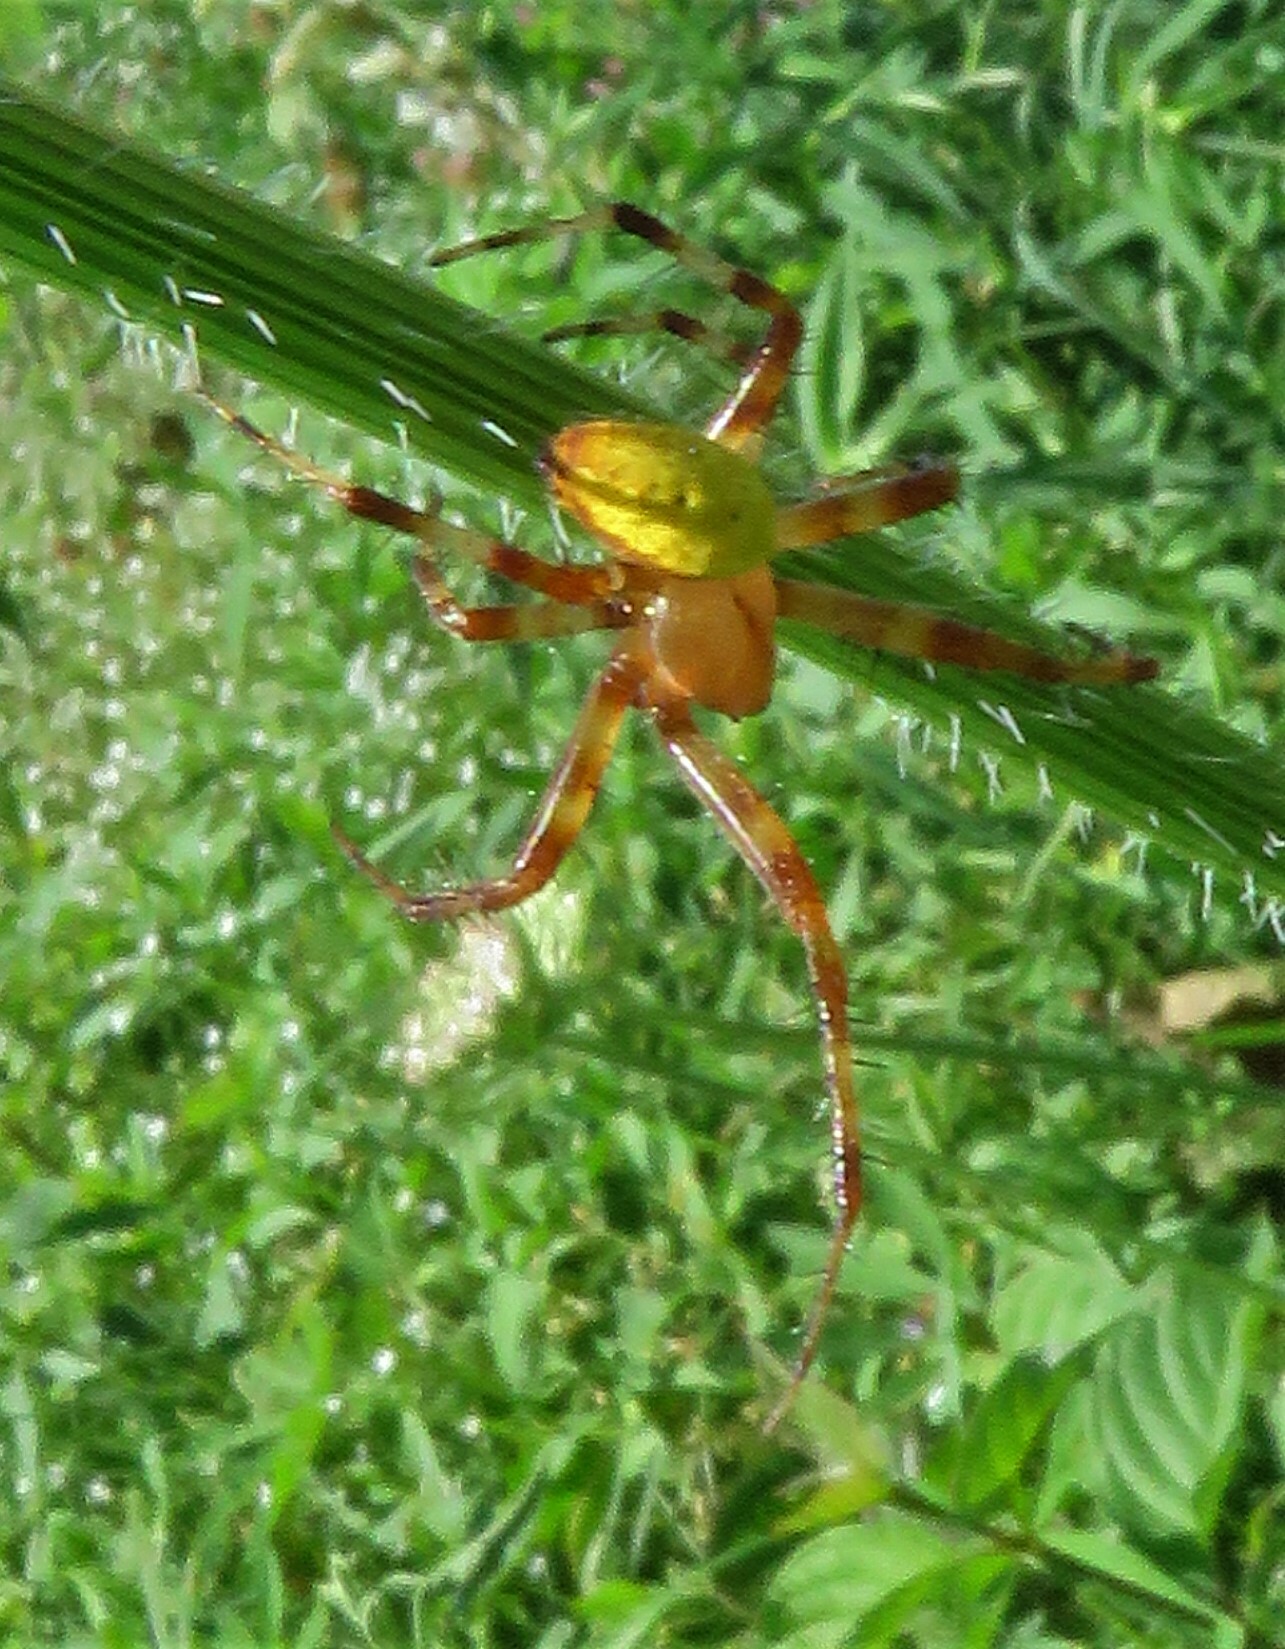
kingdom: Animalia
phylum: Arthropoda
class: Arachnida
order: Araneae
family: Araneidae
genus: Araneus
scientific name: Araneus trifolium
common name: Shamrock orbweaver
